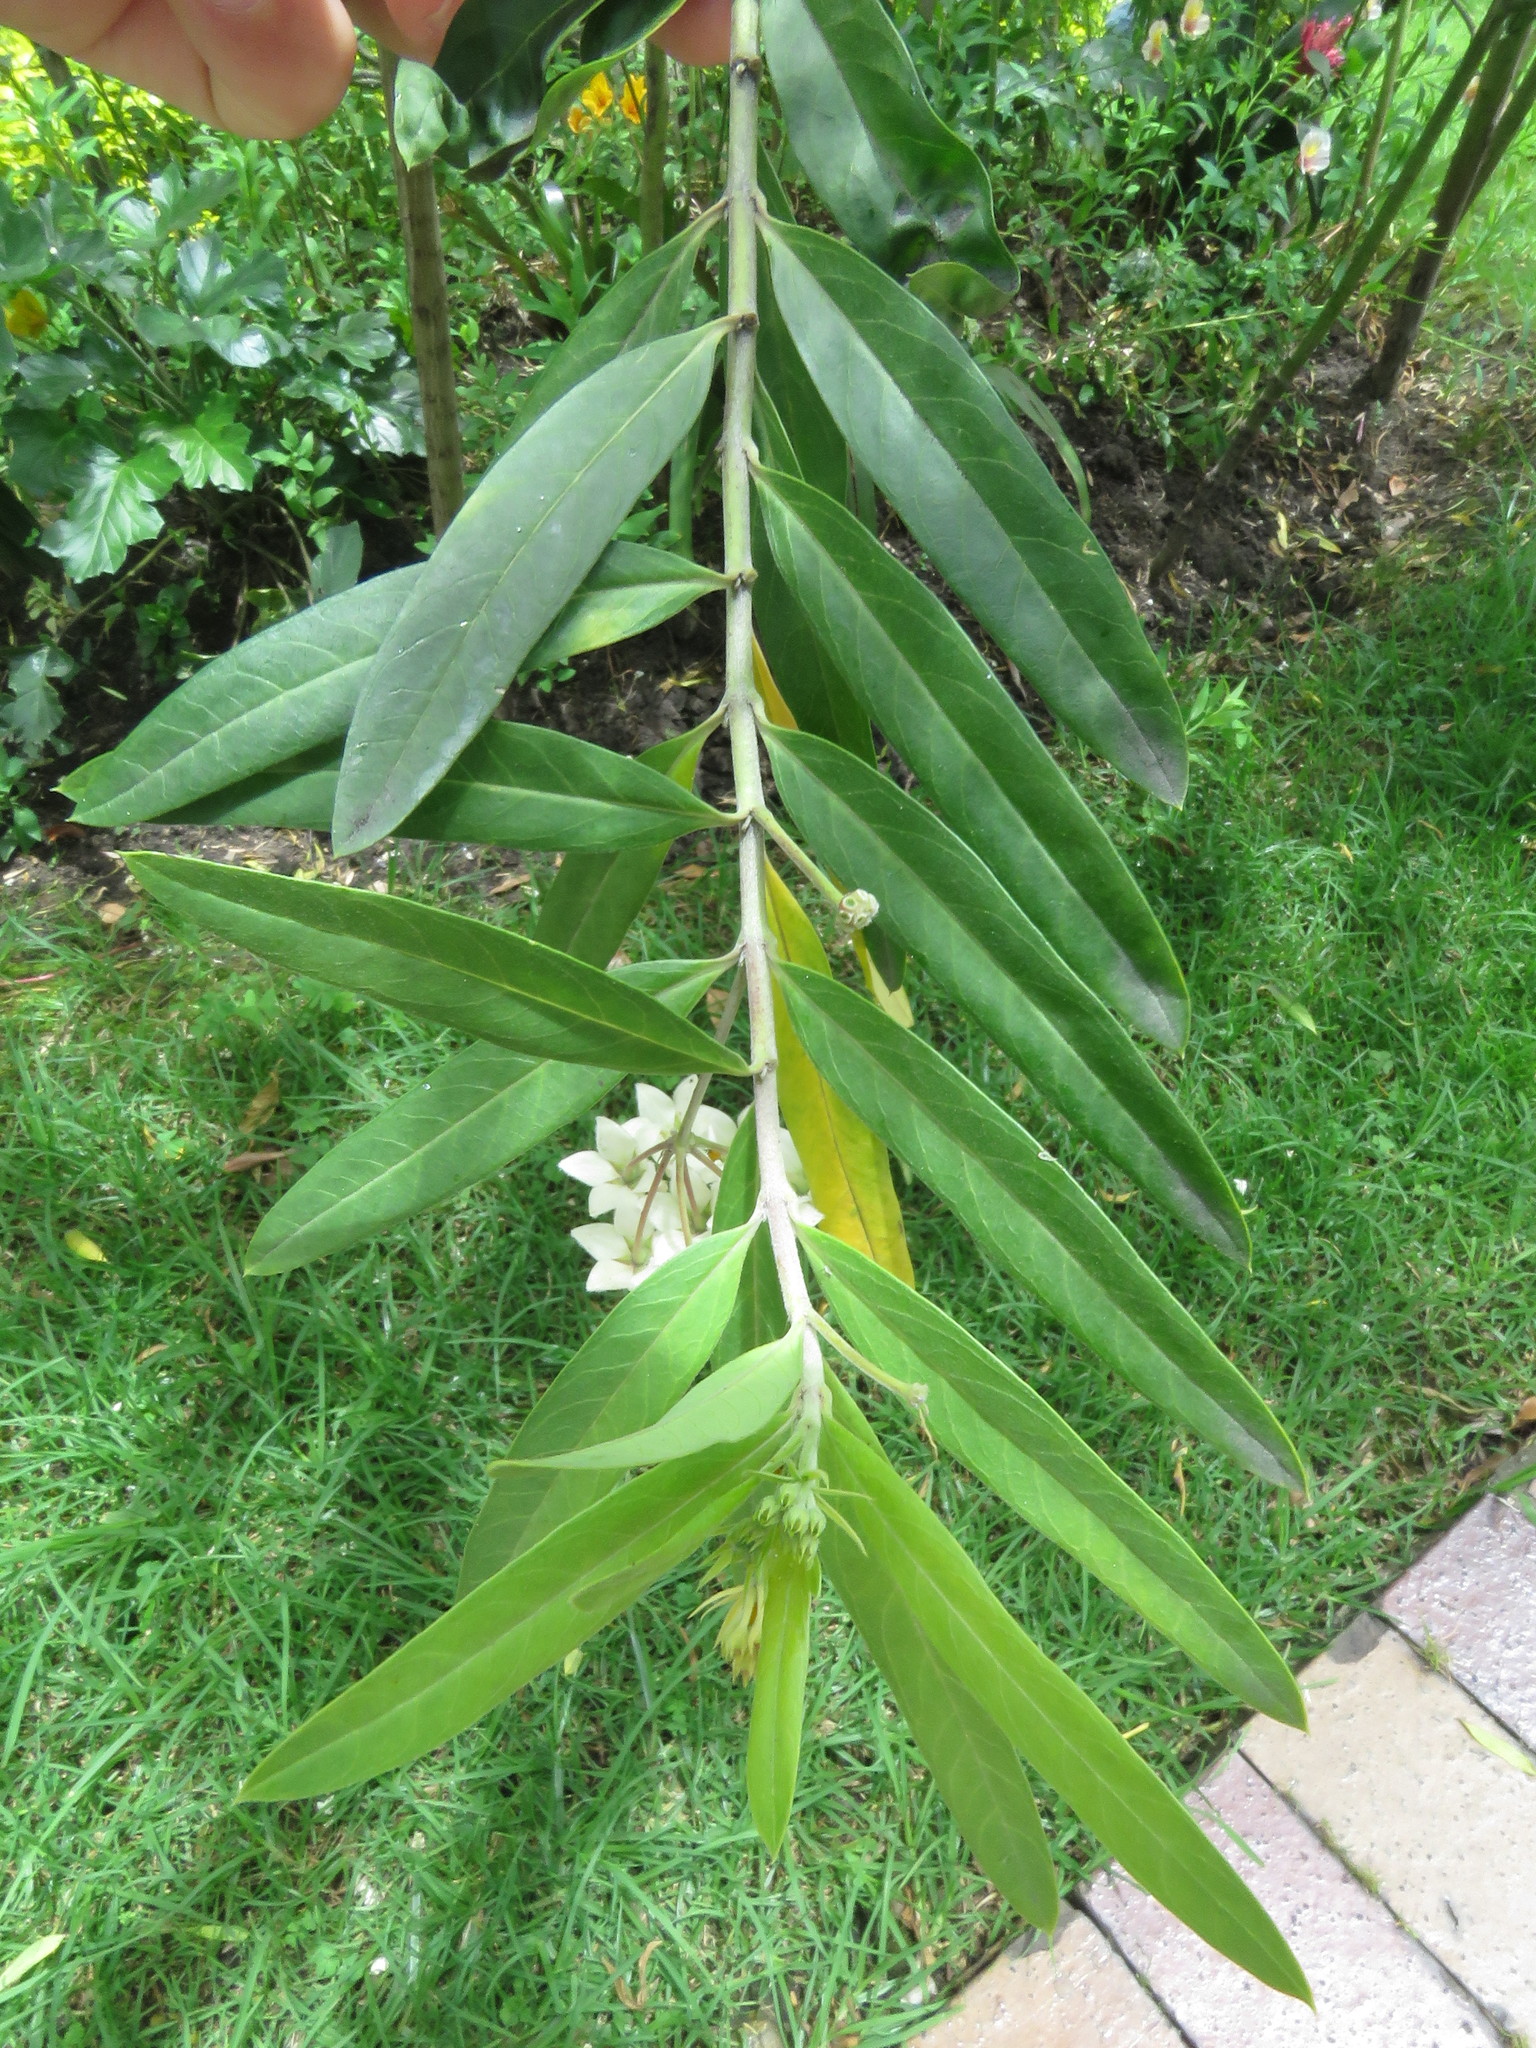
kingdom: Plantae
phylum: Tracheophyta
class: Magnoliopsida
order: Gentianales
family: Apocynaceae
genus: Gomphocarpus
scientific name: Gomphocarpus physocarpus
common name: Balloon cotton bush
